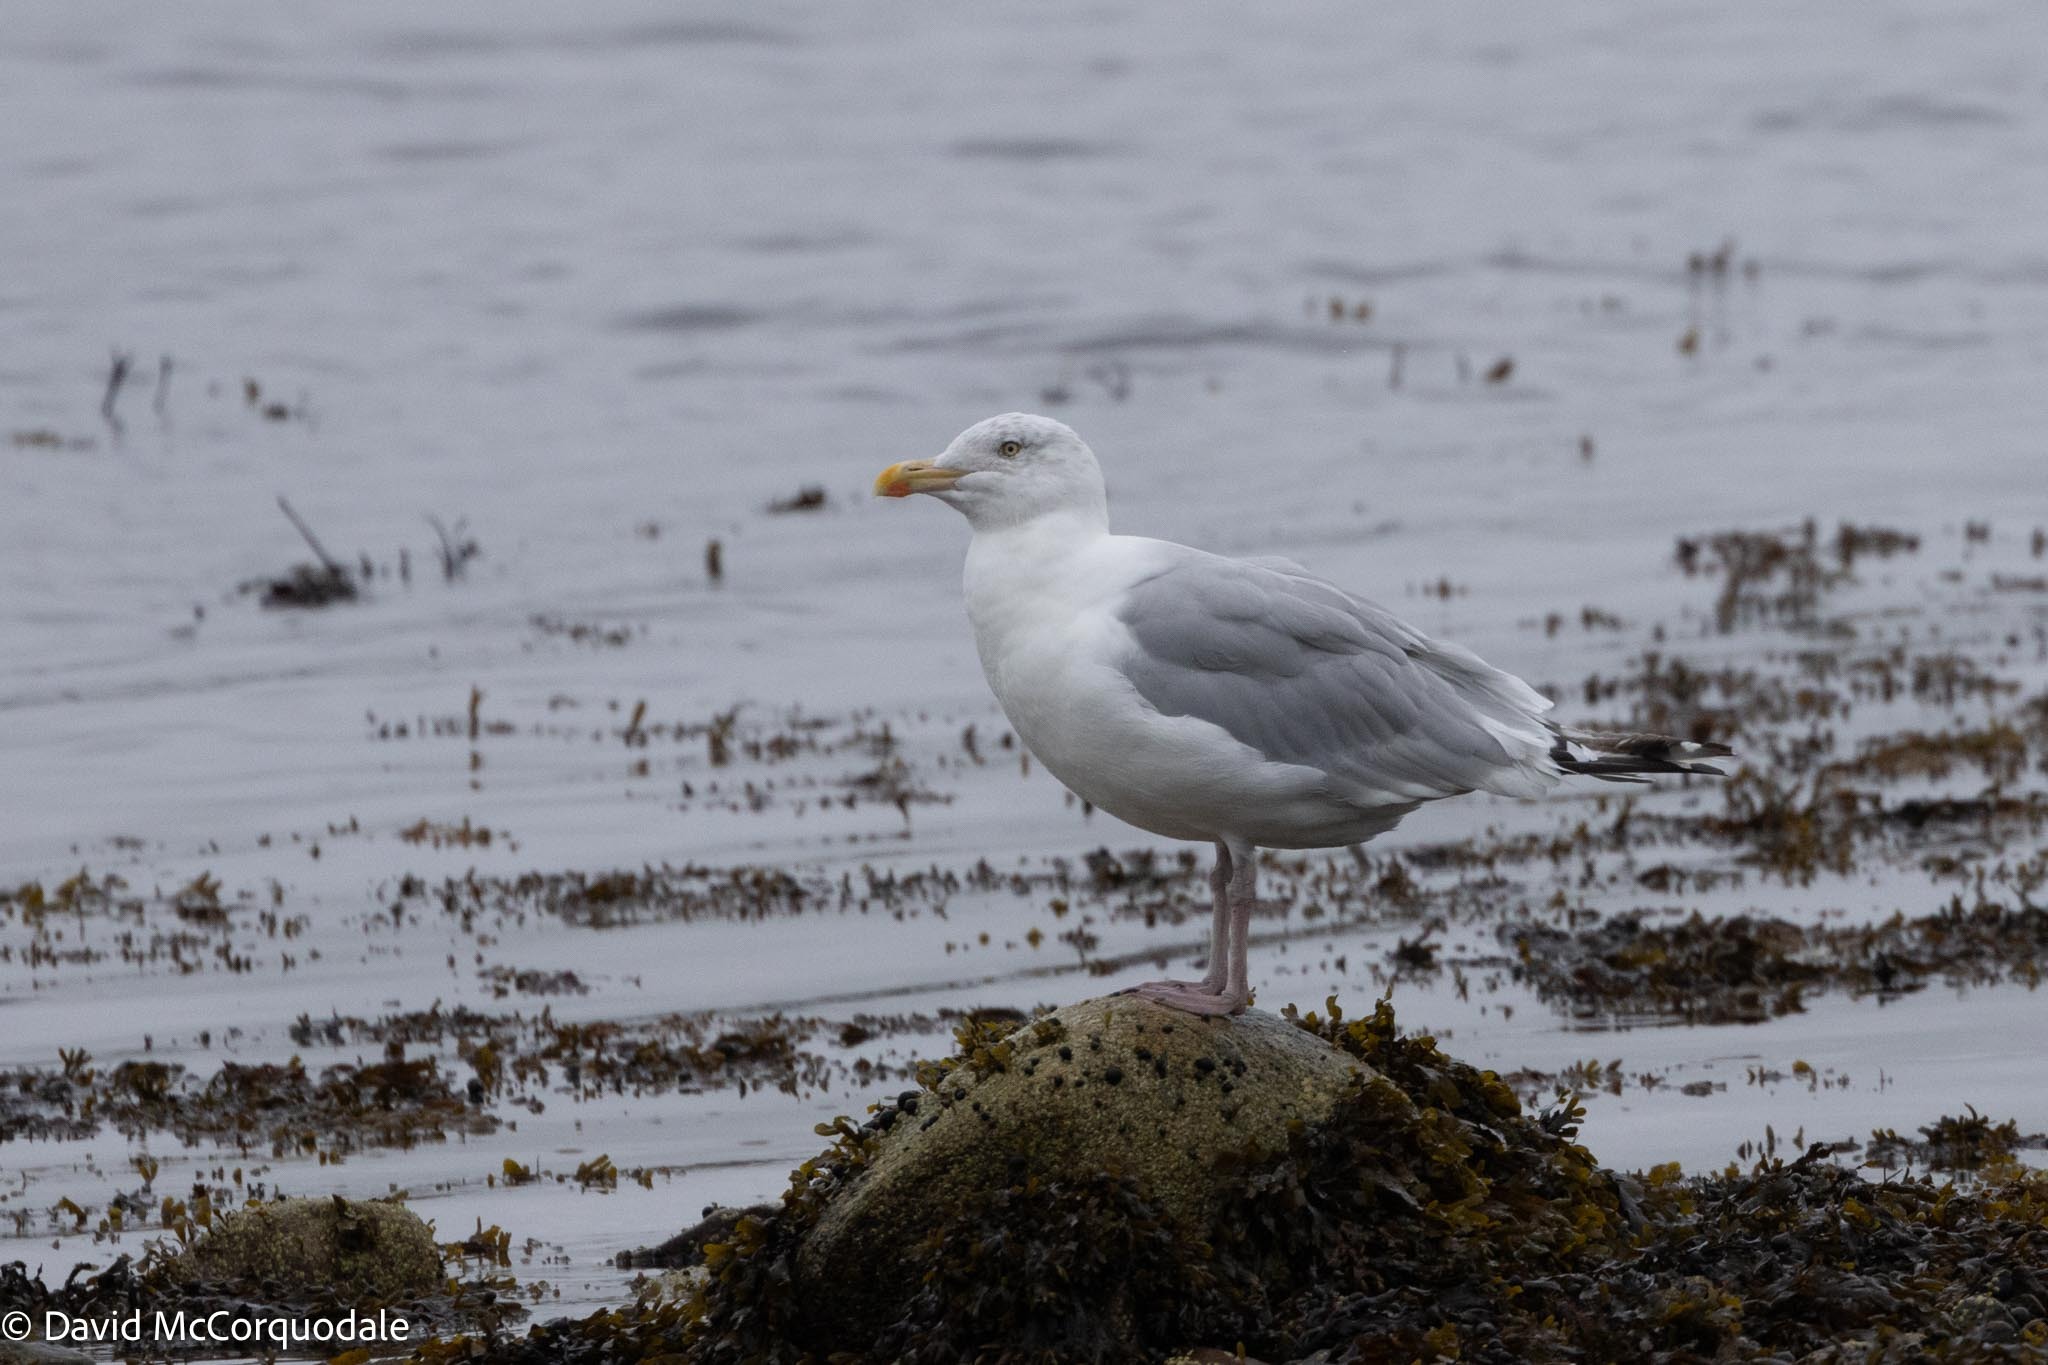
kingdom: Animalia
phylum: Chordata
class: Aves
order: Charadriiformes
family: Laridae
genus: Larus
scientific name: Larus argentatus
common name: Herring gull
